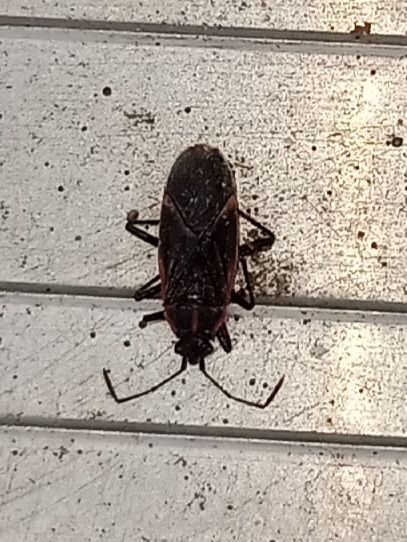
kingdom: Animalia
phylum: Arthropoda
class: Insecta
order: Hemiptera
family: Rhopalidae
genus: Boisea
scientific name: Boisea trivittata
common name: Boxelder bug
